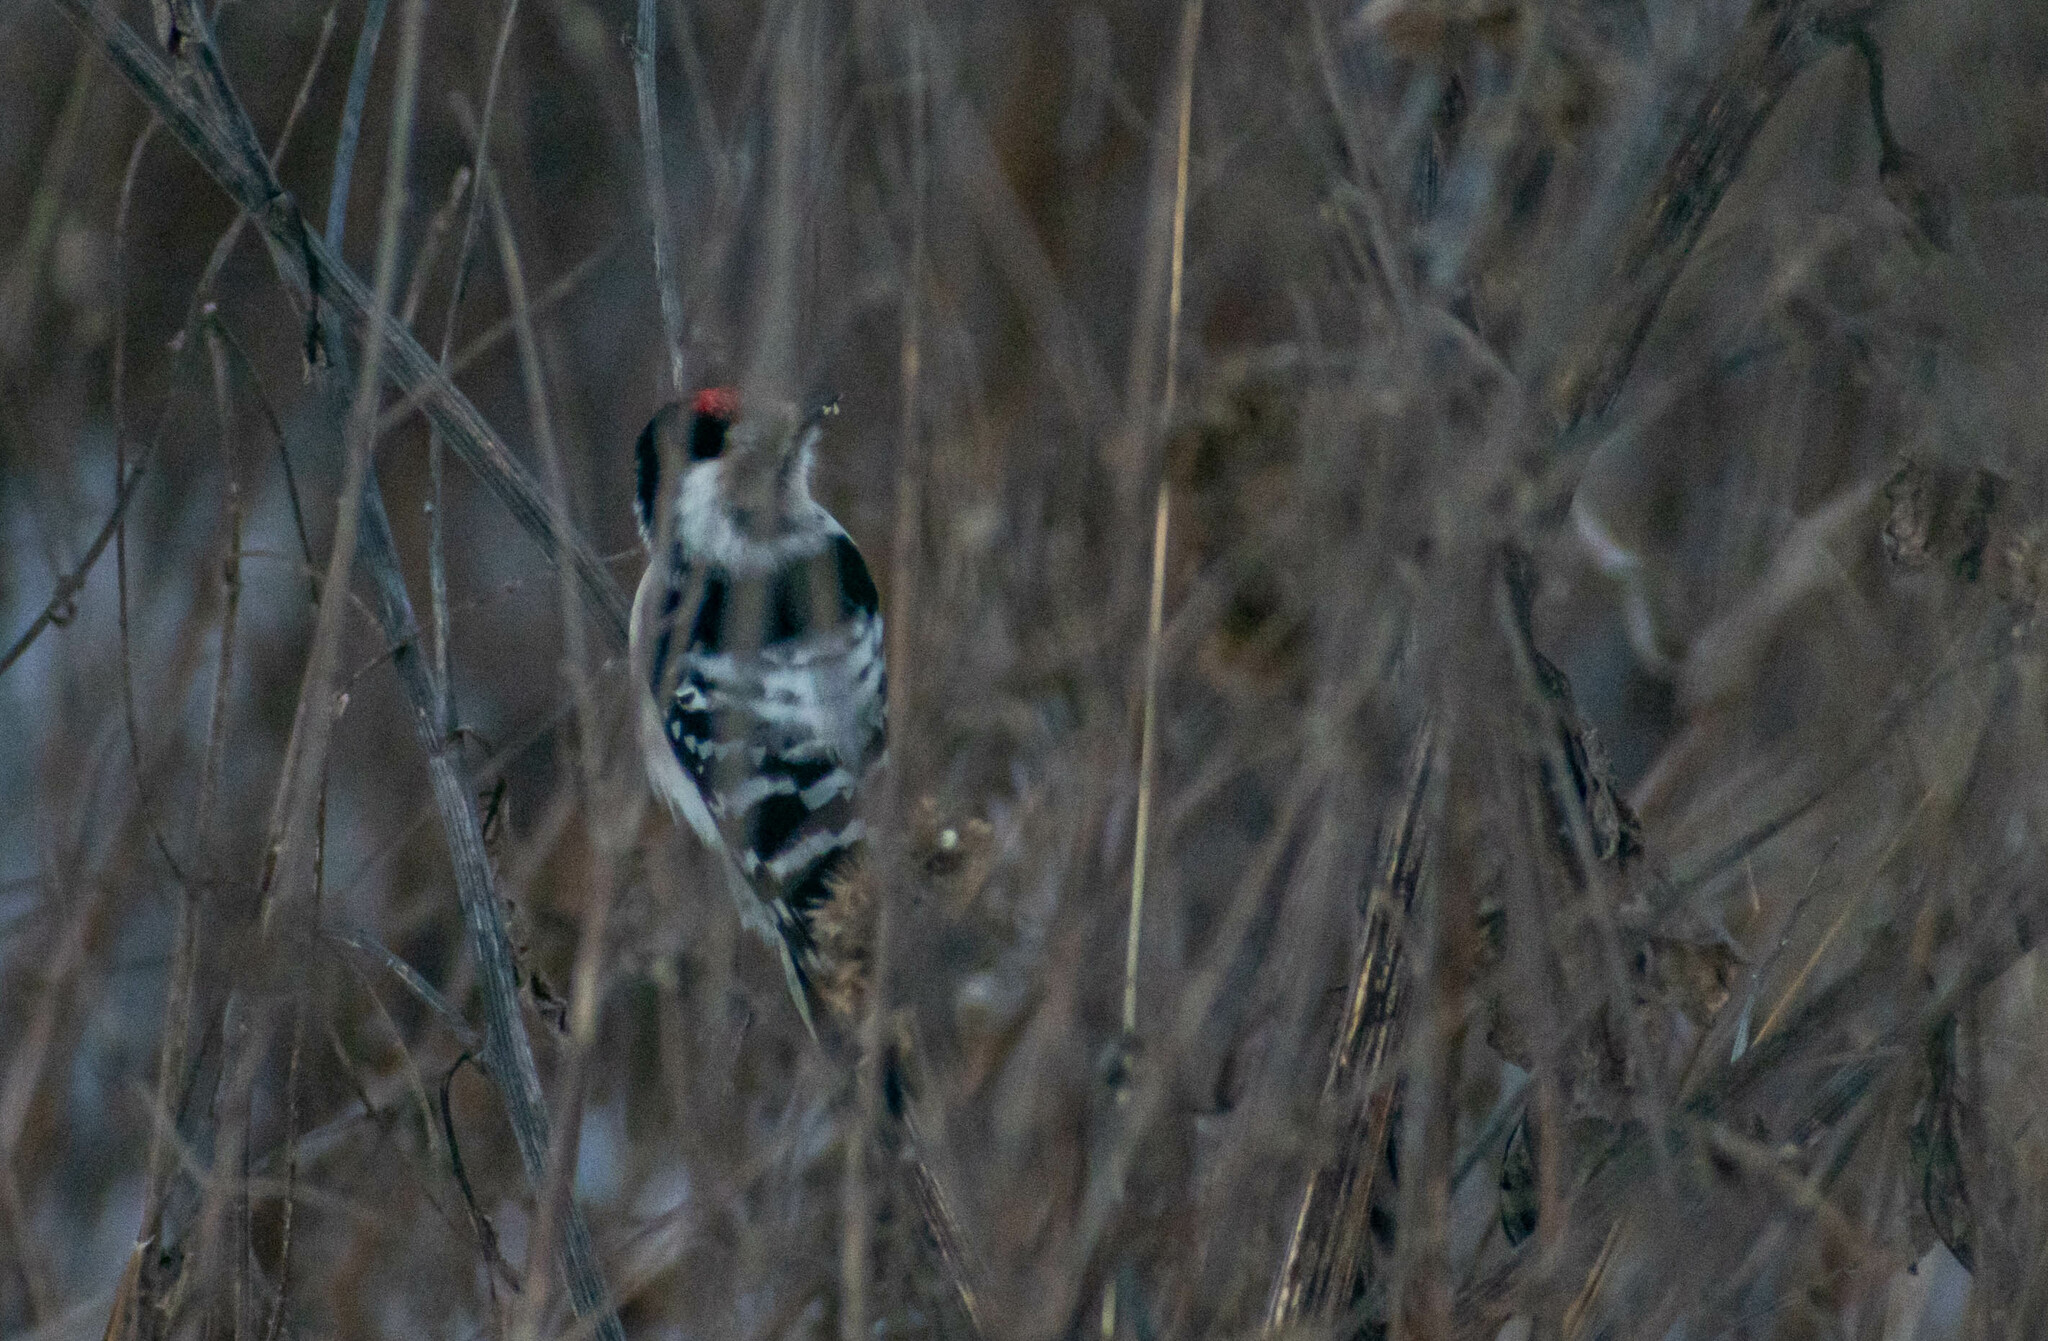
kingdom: Animalia
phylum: Chordata
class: Aves
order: Piciformes
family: Picidae
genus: Dryobates
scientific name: Dryobates minor
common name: Lesser spotted woodpecker
